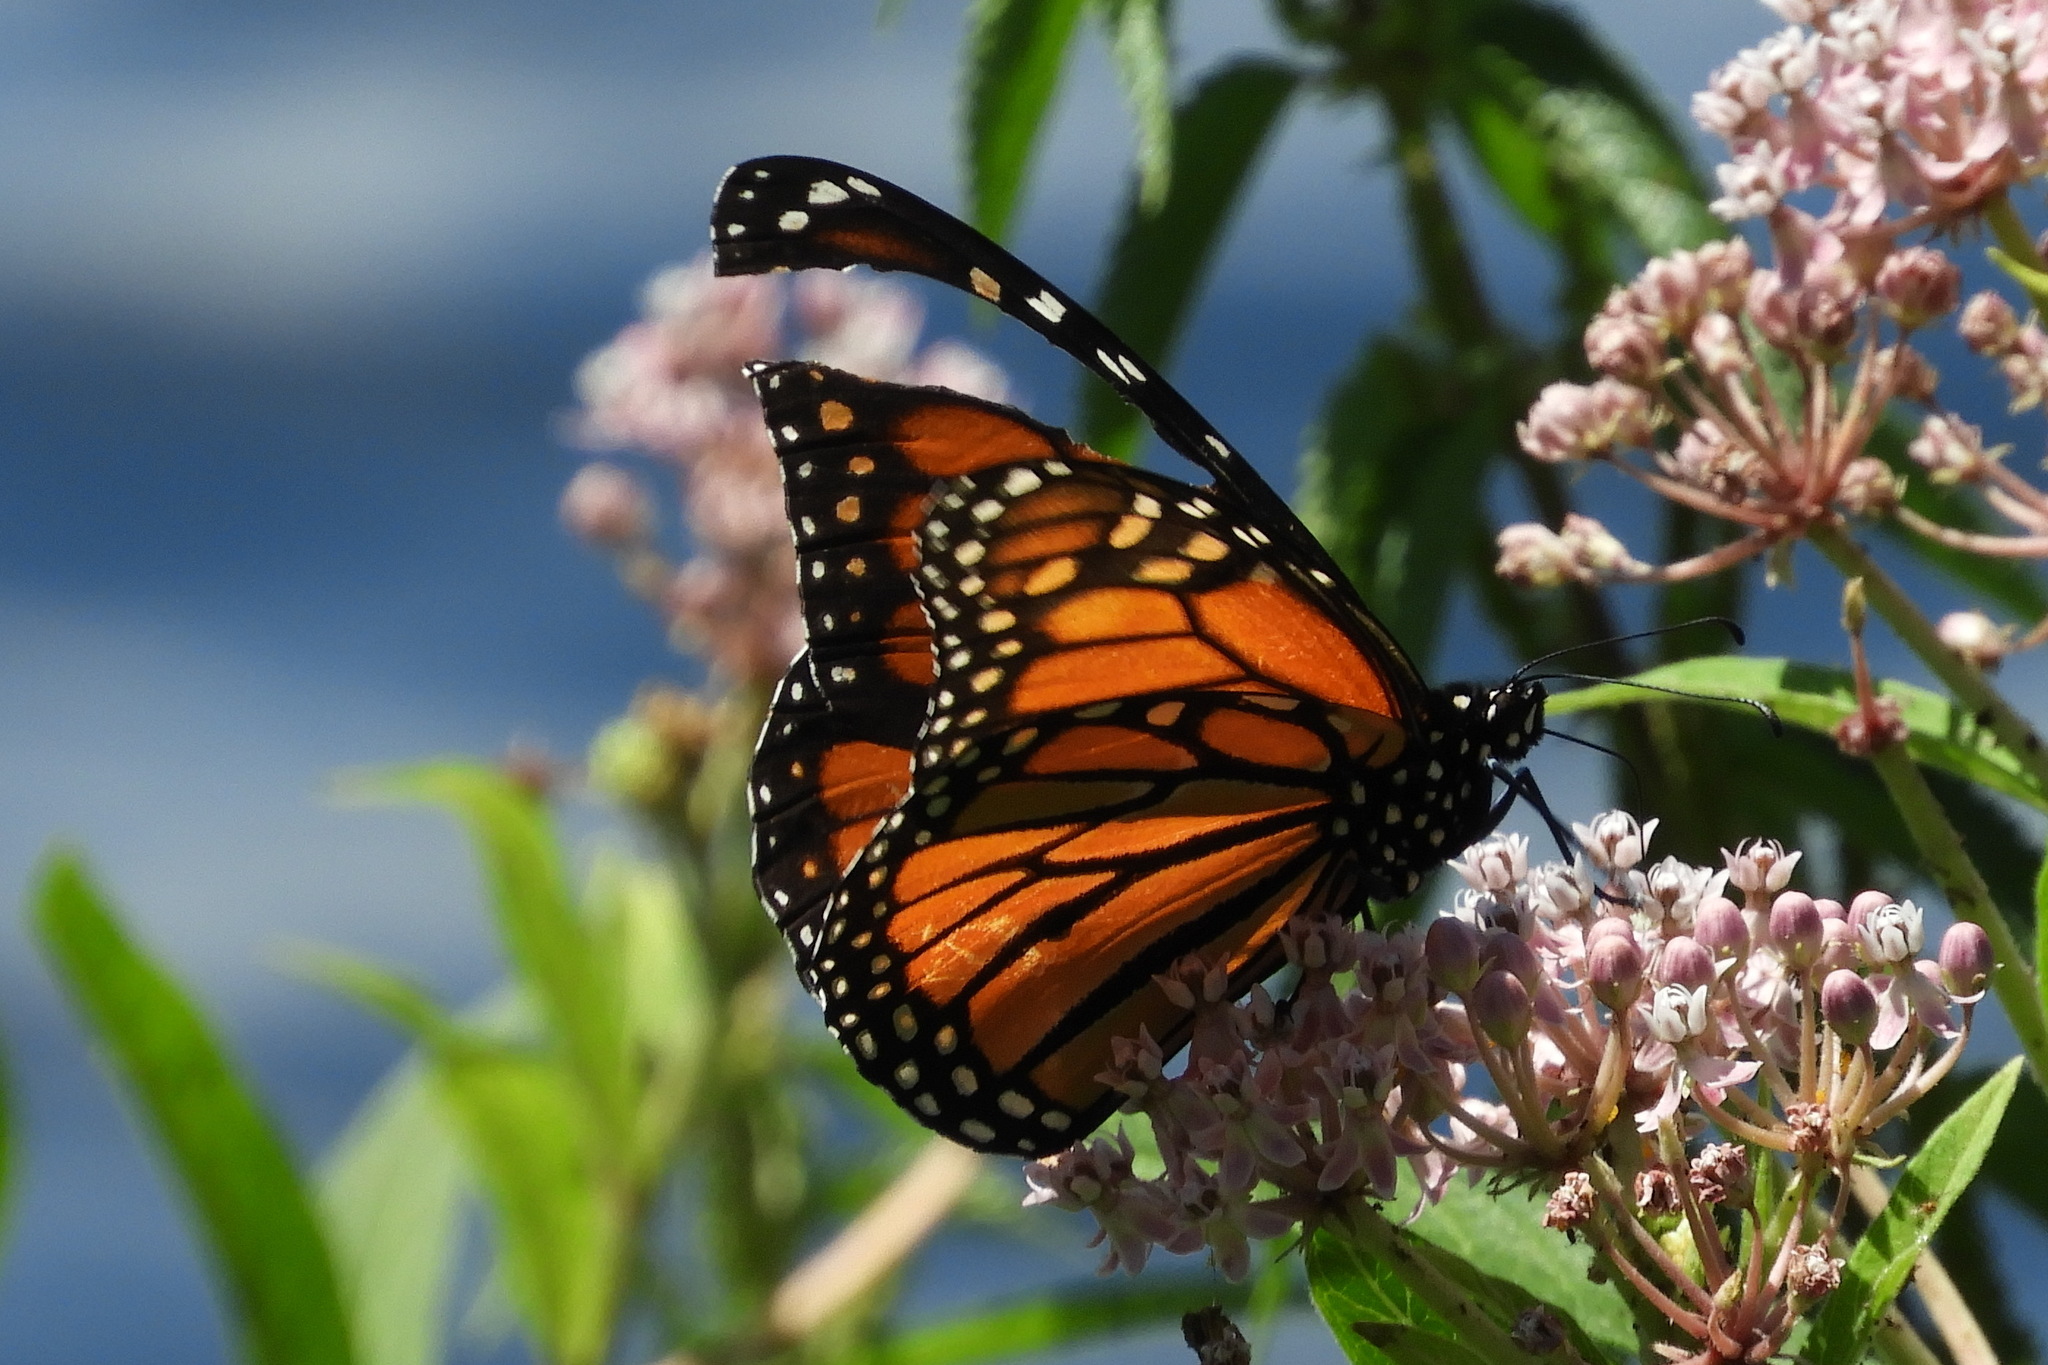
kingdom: Animalia
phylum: Arthropoda
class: Insecta
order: Lepidoptera
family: Nymphalidae
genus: Danaus
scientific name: Danaus plexippus
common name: Monarch
